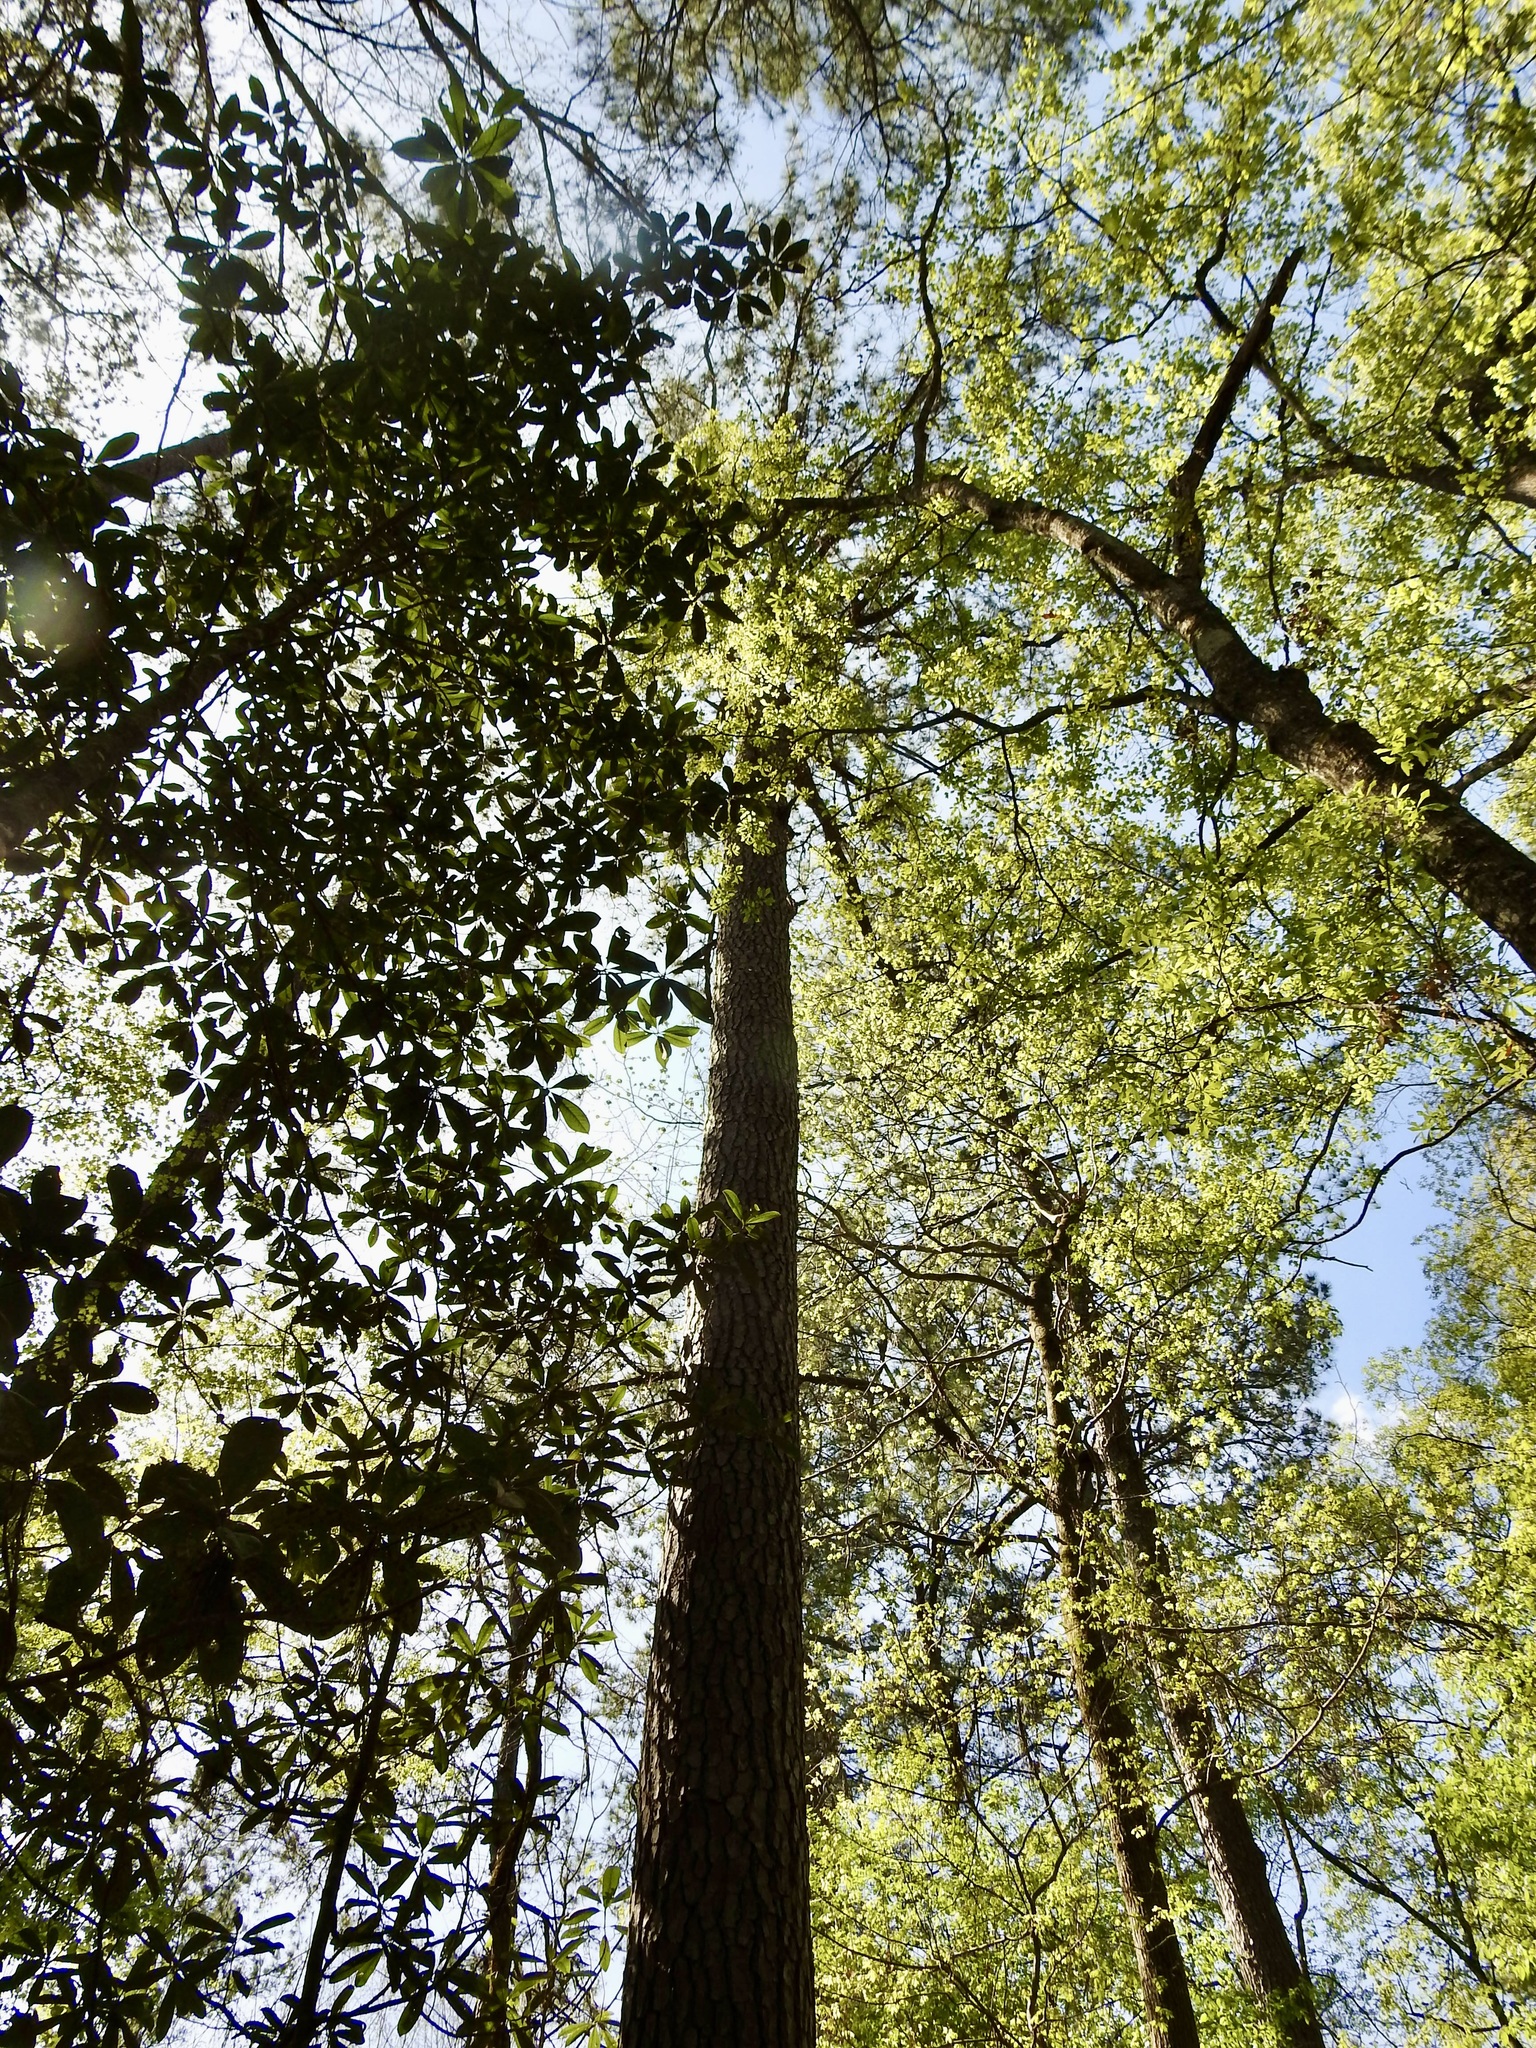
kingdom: Plantae
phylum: Tracheophyta
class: Pinopsida
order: Pinales
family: Pinaceae
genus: Pinus
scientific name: Pinus taeda
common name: Loblolly pine
